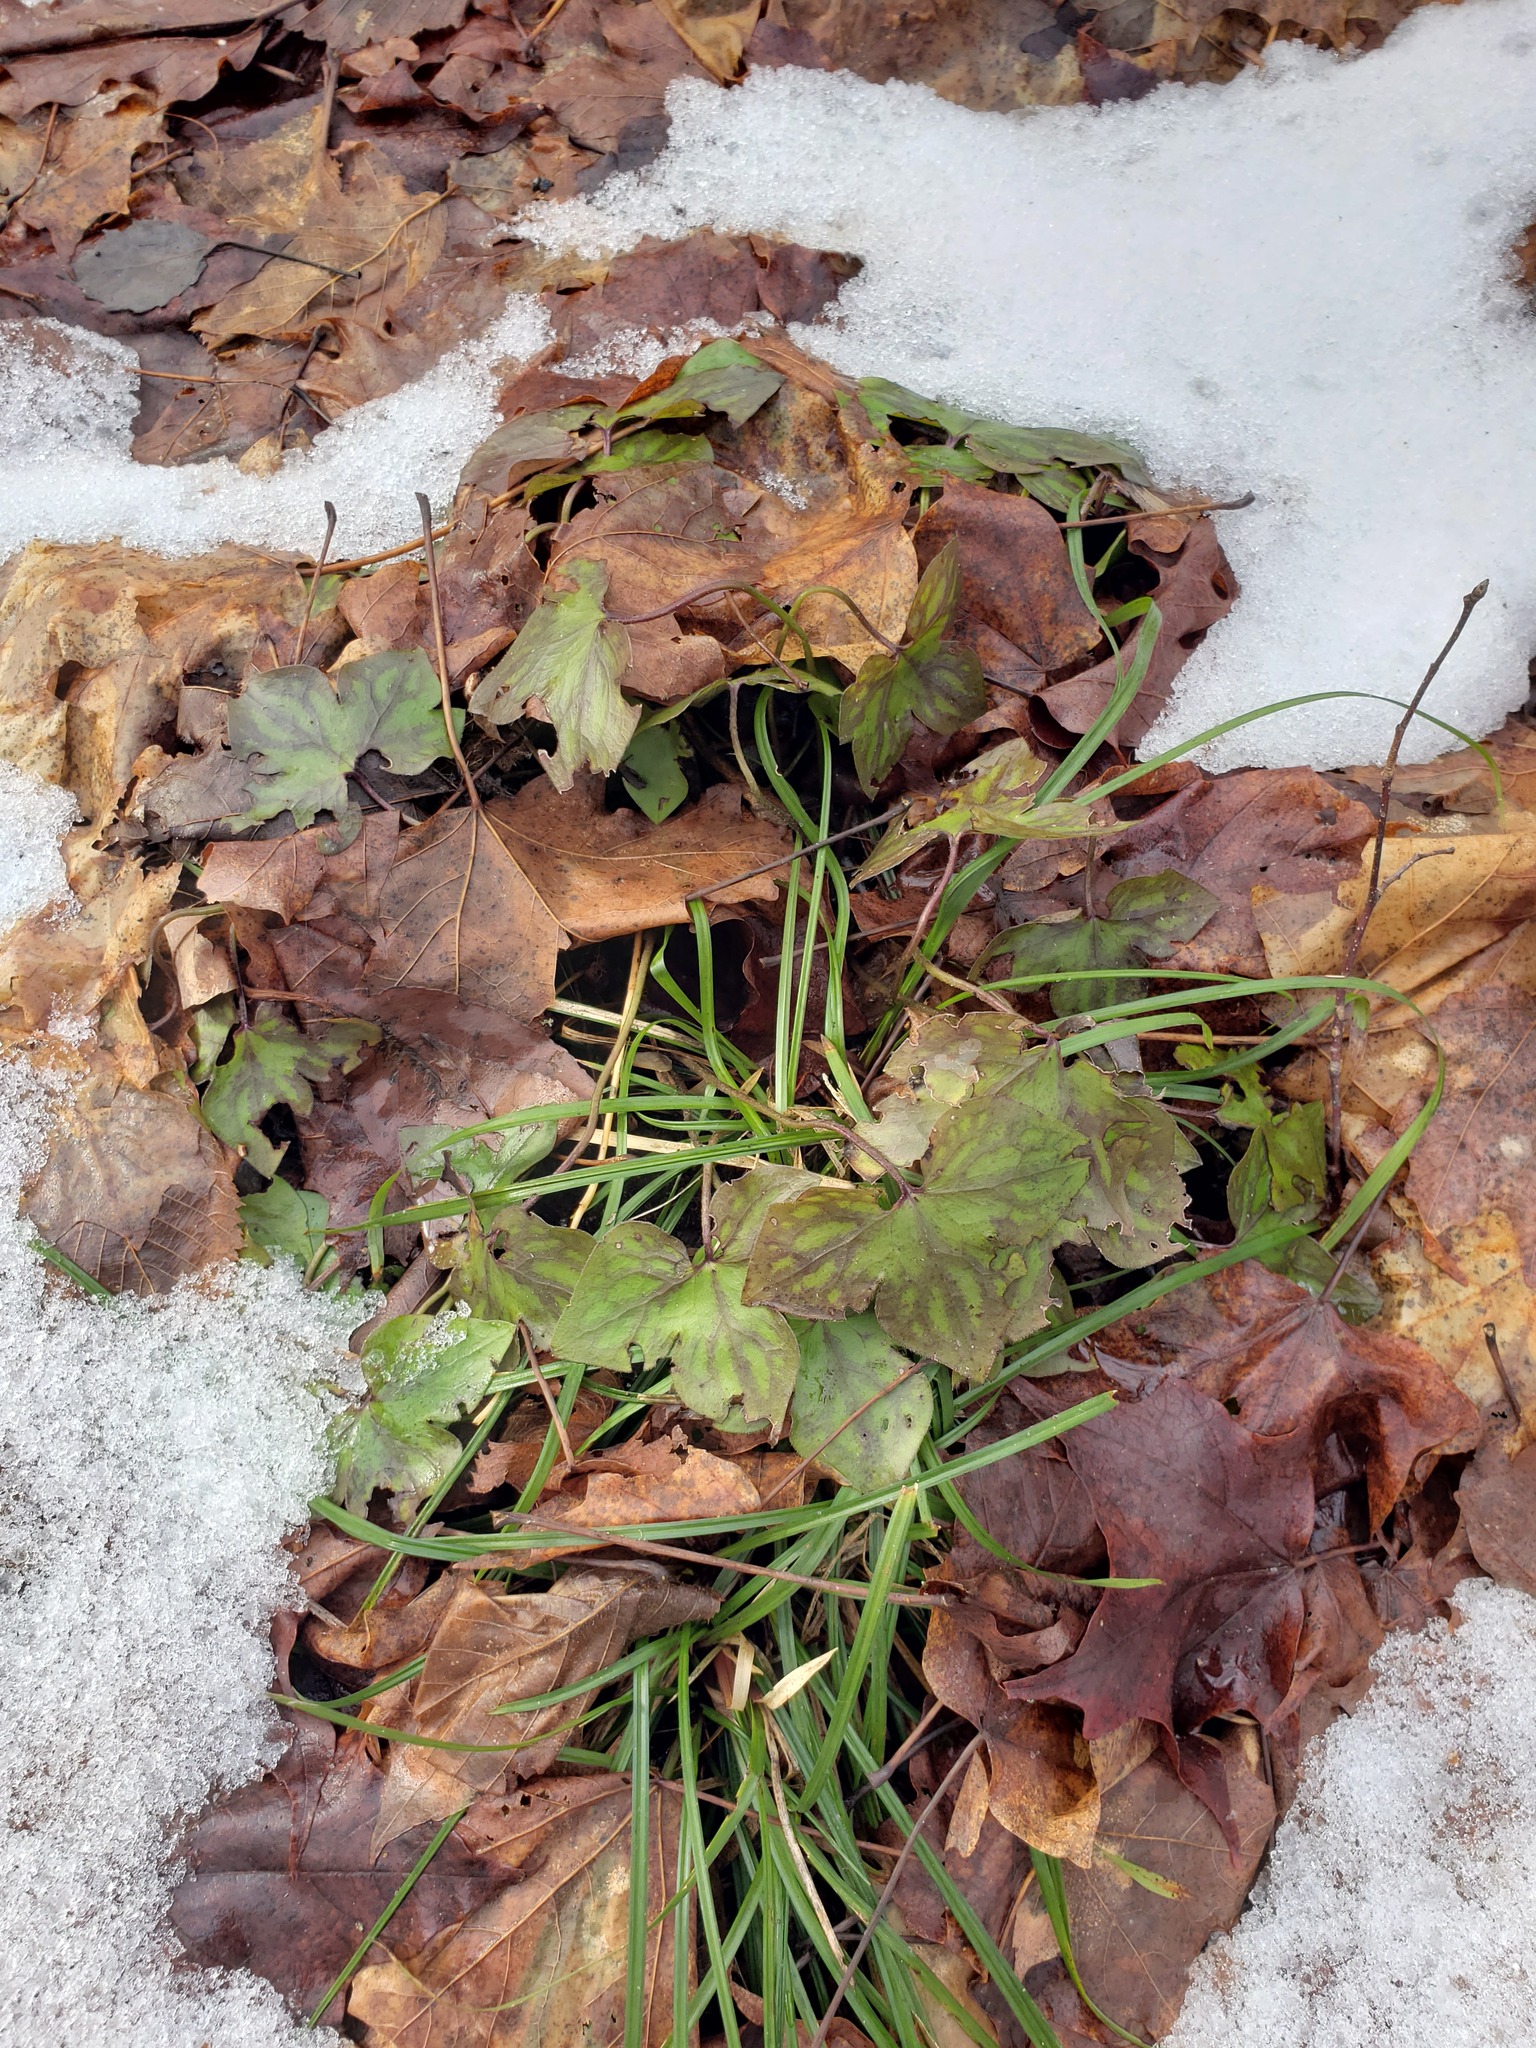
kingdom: Plantae
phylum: Tracheophyta
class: Magnoliopsida
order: Ranunculales
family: Ranunculaceae
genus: Hepatica
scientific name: Hepatica acutiloba
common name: Sharp-lobed hepatica
